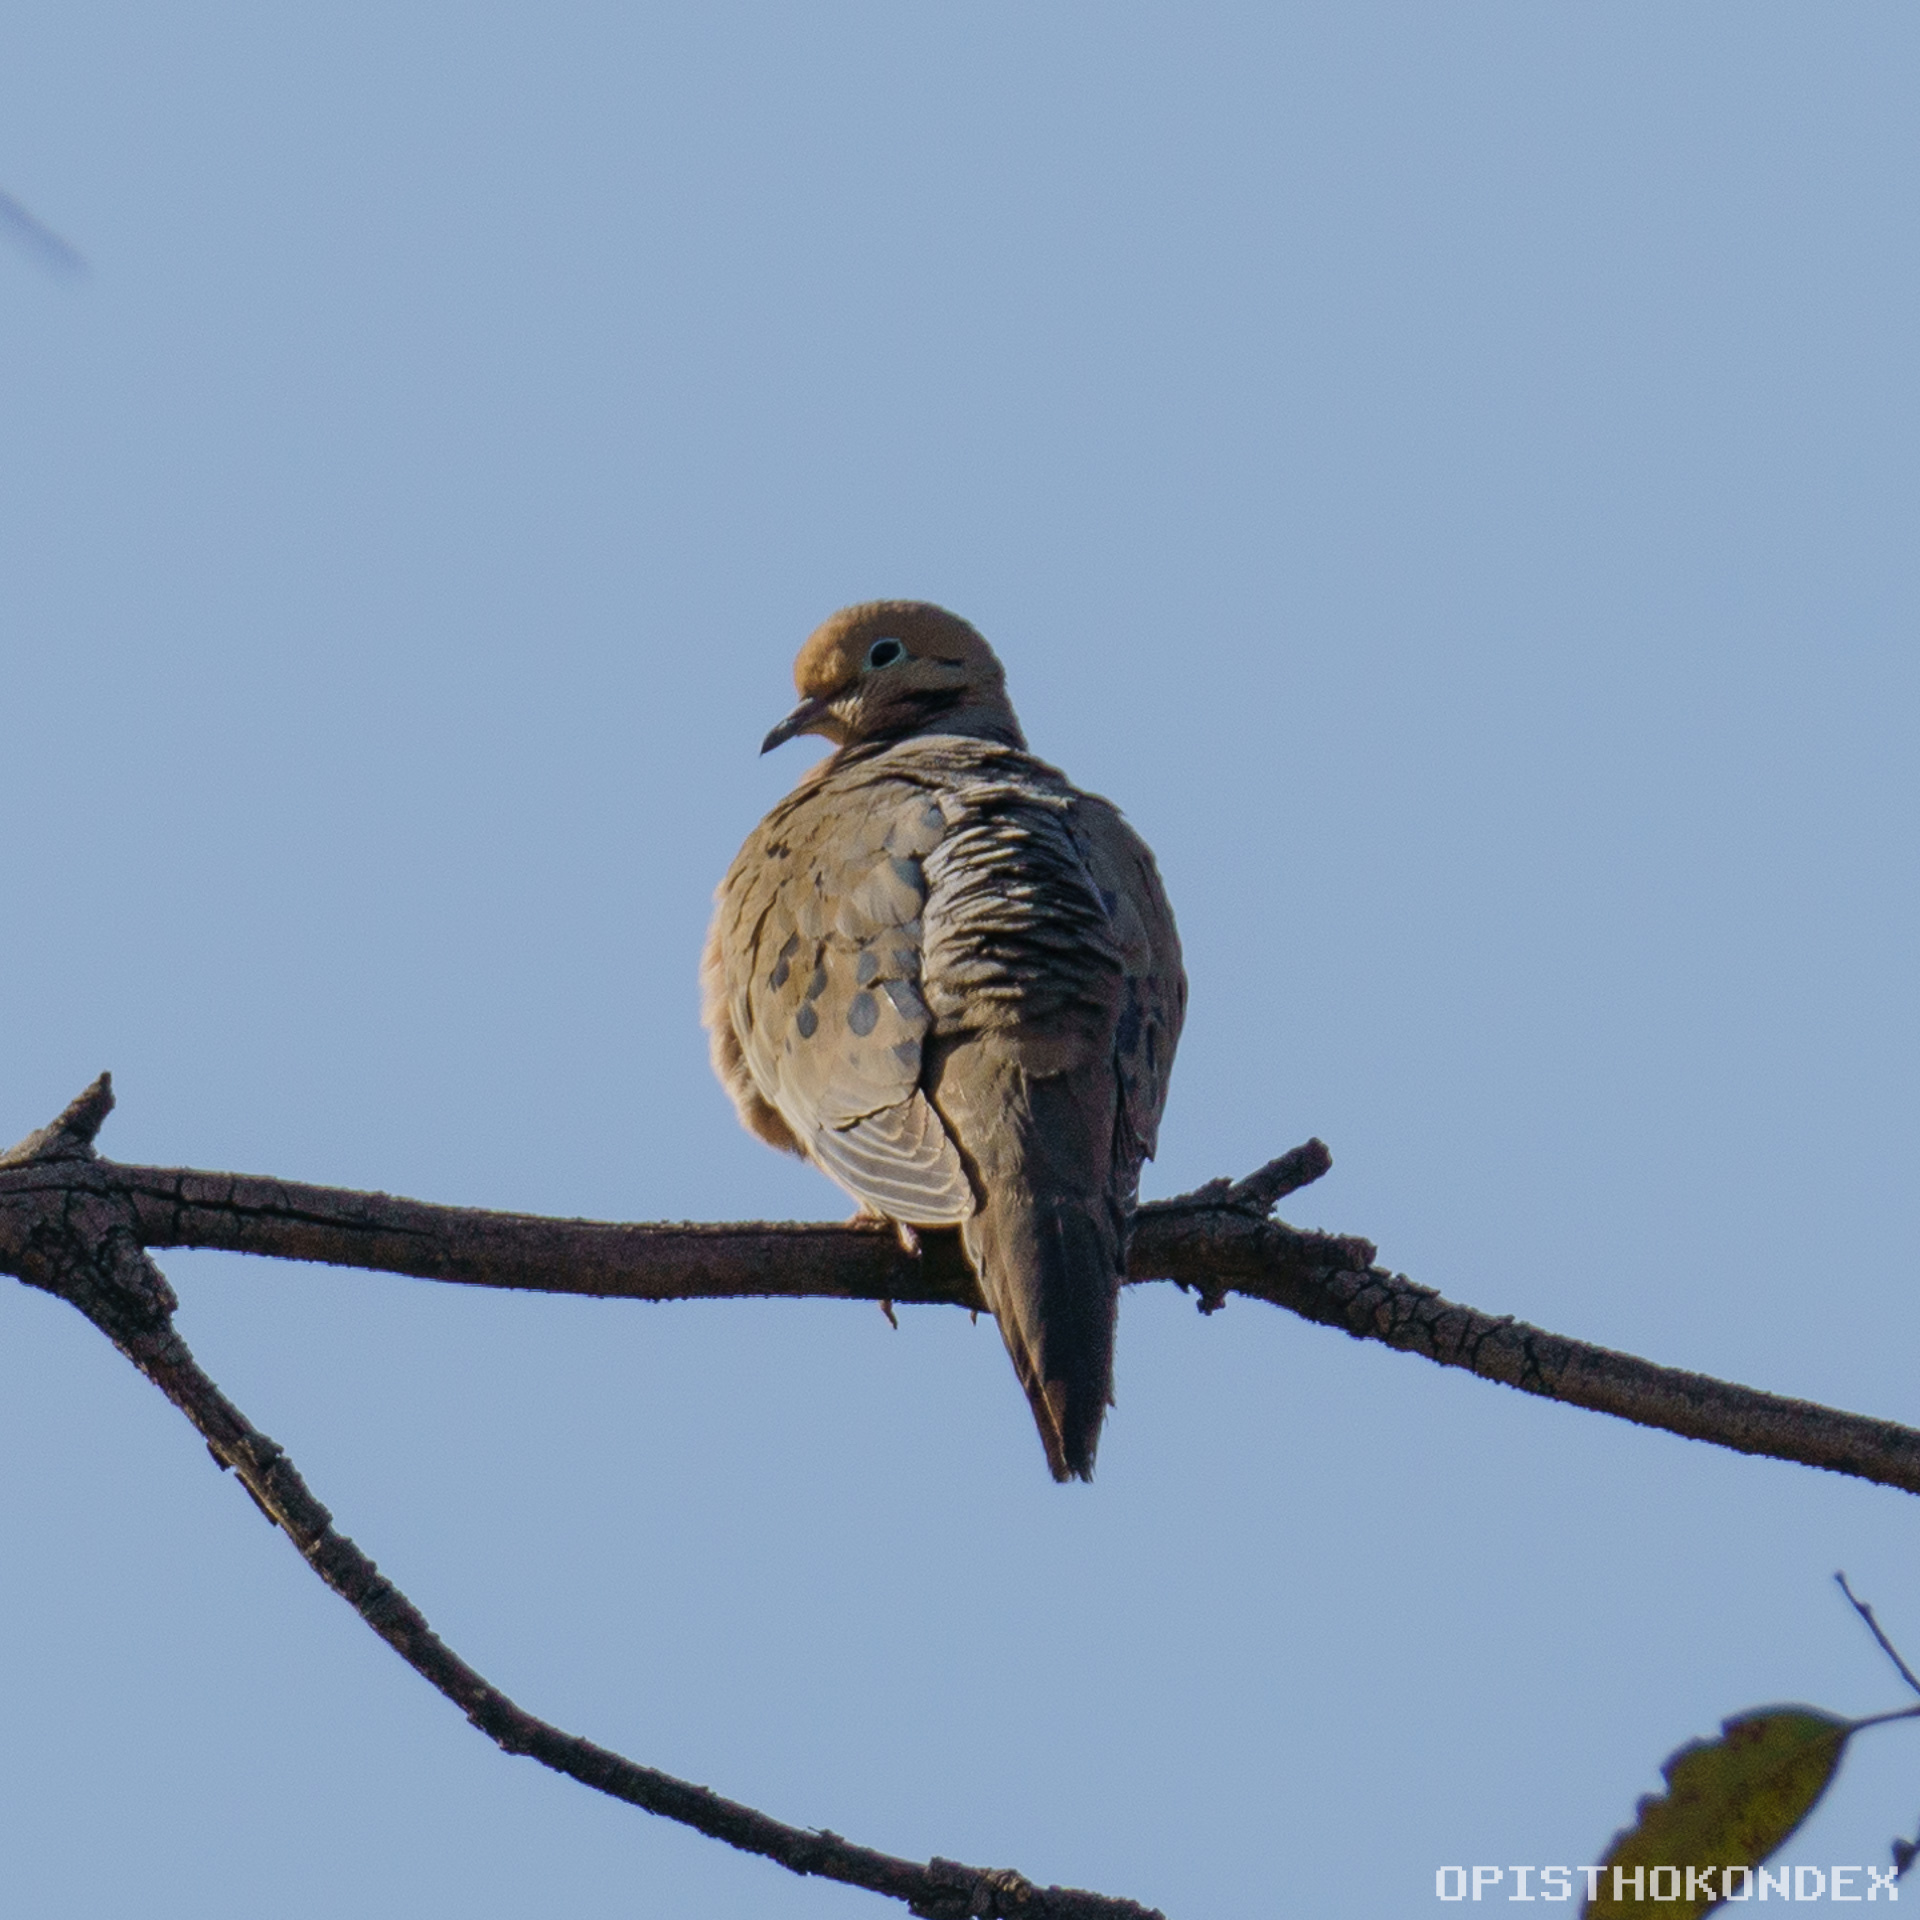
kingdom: Animalia
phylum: Chordata
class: Aves
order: Columbiformes
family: Columbidae
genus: Zenaida
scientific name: Zenaida macroura
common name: Mourning dove
